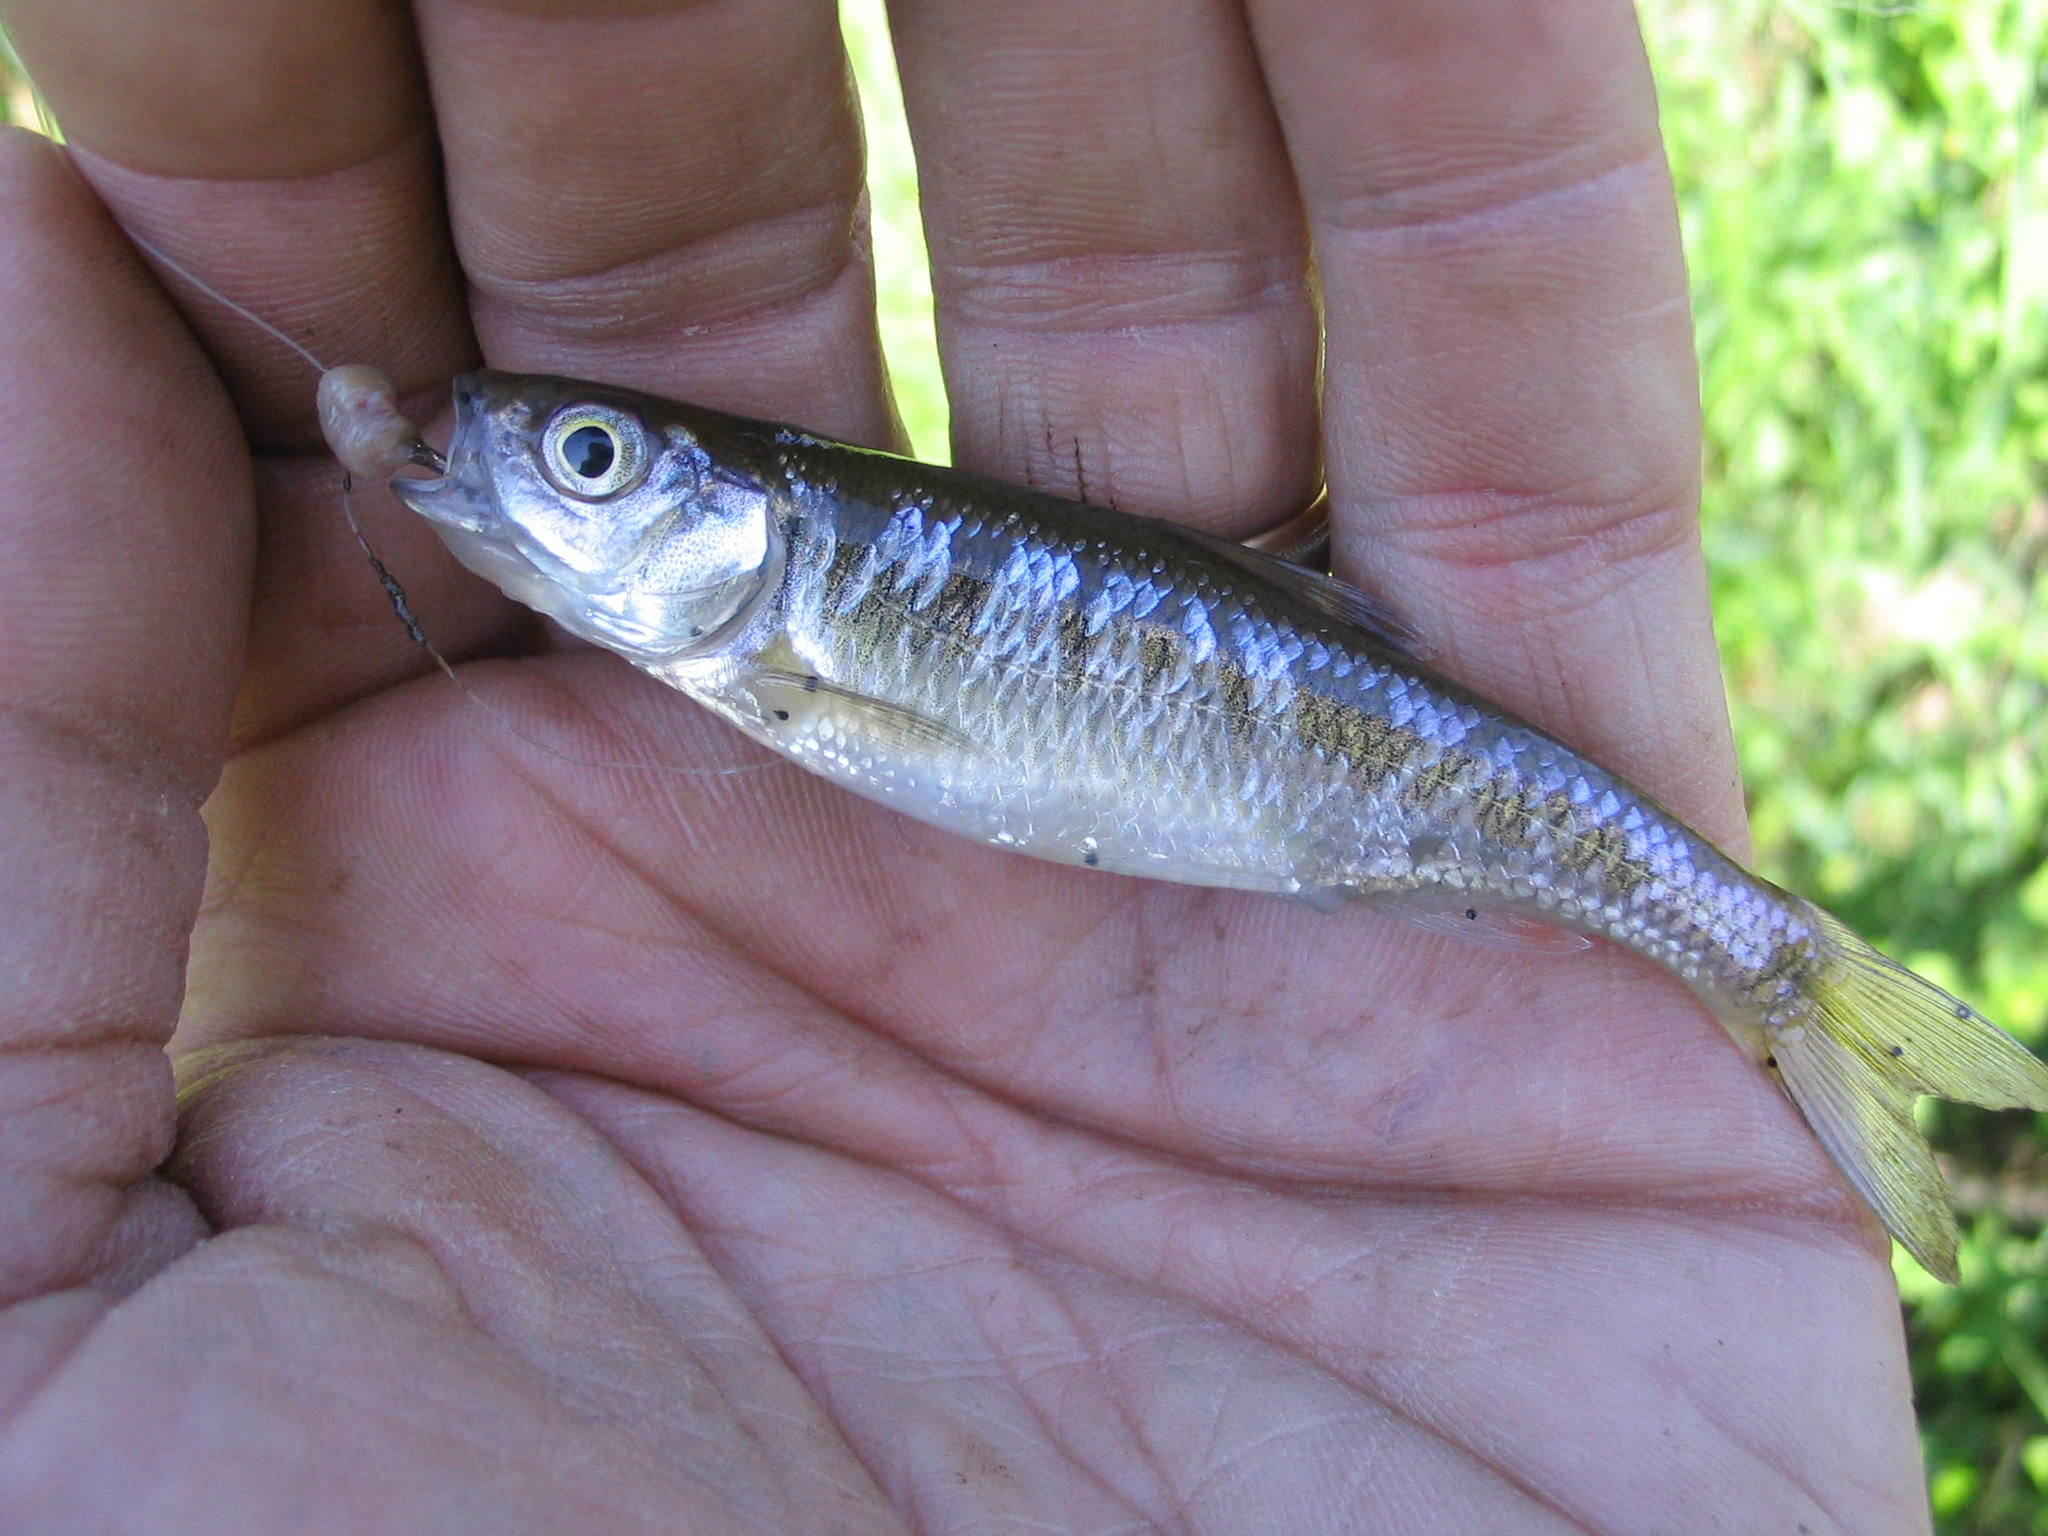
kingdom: Animalia
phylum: Chordata
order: Cypriniformes
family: Cyprinidae
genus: Luxilus
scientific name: Luxilus cornutus
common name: Common shiner
